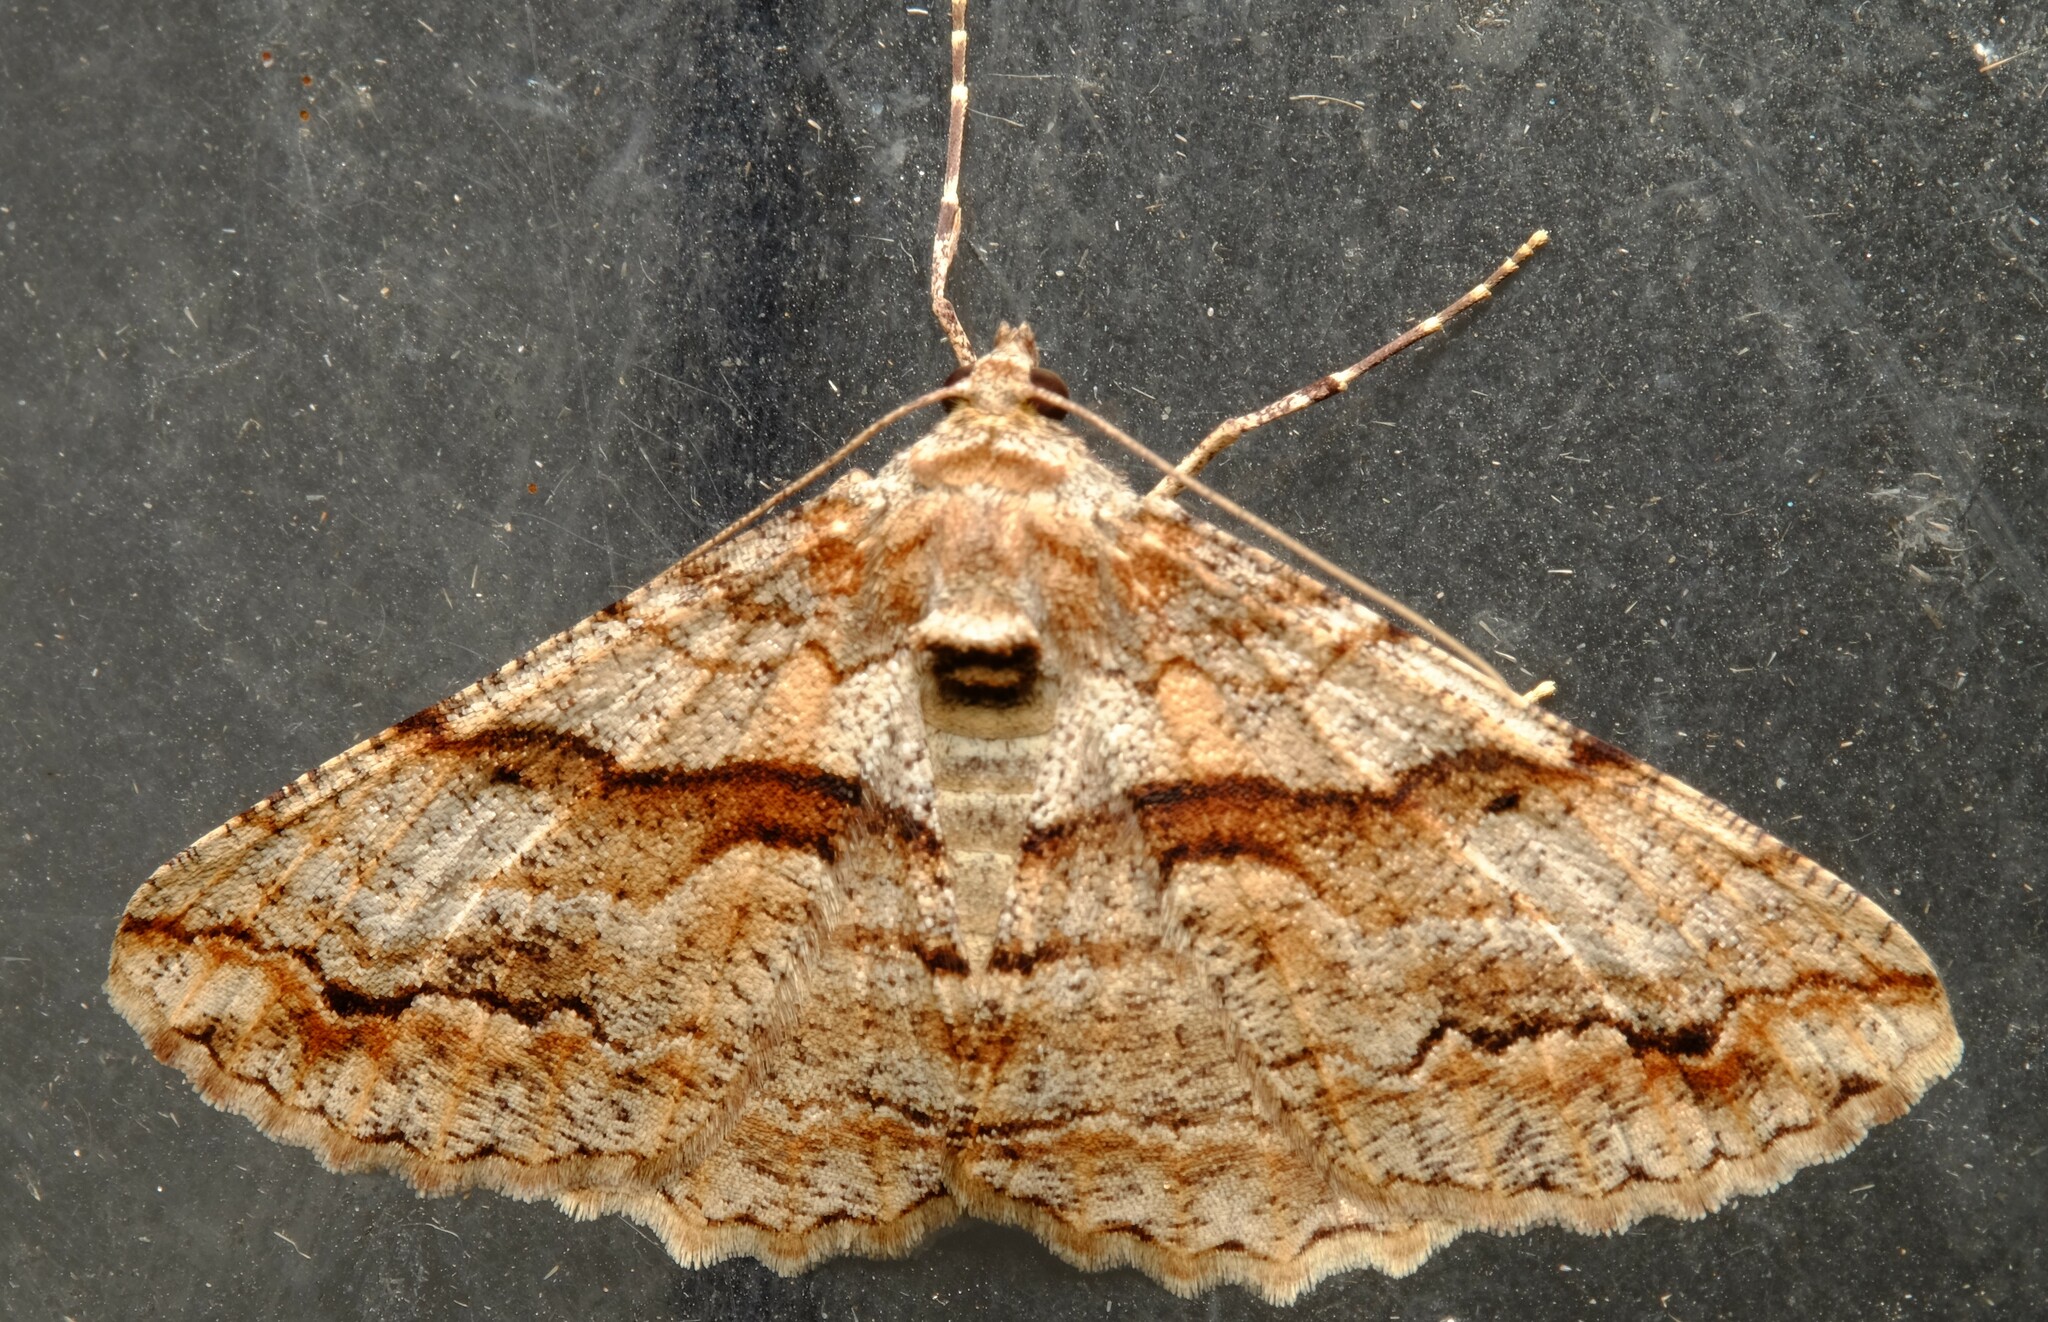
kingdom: Animalia
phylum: Arthropoda
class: Insecta
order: Lepidoptera
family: Geometridae
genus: Gastrinodes
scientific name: Gastrinodes bitaeniaria
